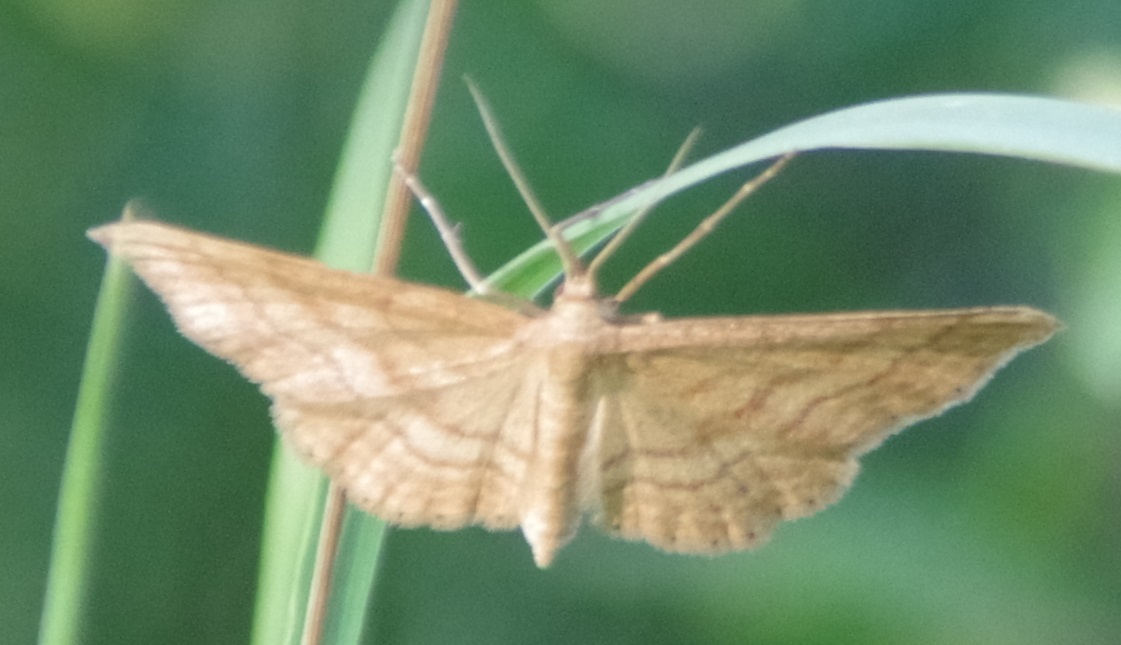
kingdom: Animalia
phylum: Arthropoda
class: Insecta
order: Lepidoptera
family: Geometridae
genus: Idaea
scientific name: Idaea ochrata
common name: Bright wave
